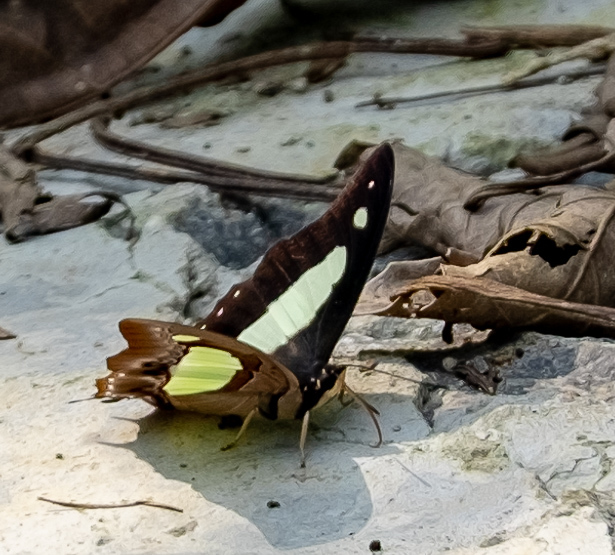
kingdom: Animalia
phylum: Arthropoda
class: Insecta
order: Lepidoptera
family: Nymphalidae
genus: Polyura
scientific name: Polyura athamas
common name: Common nawab
